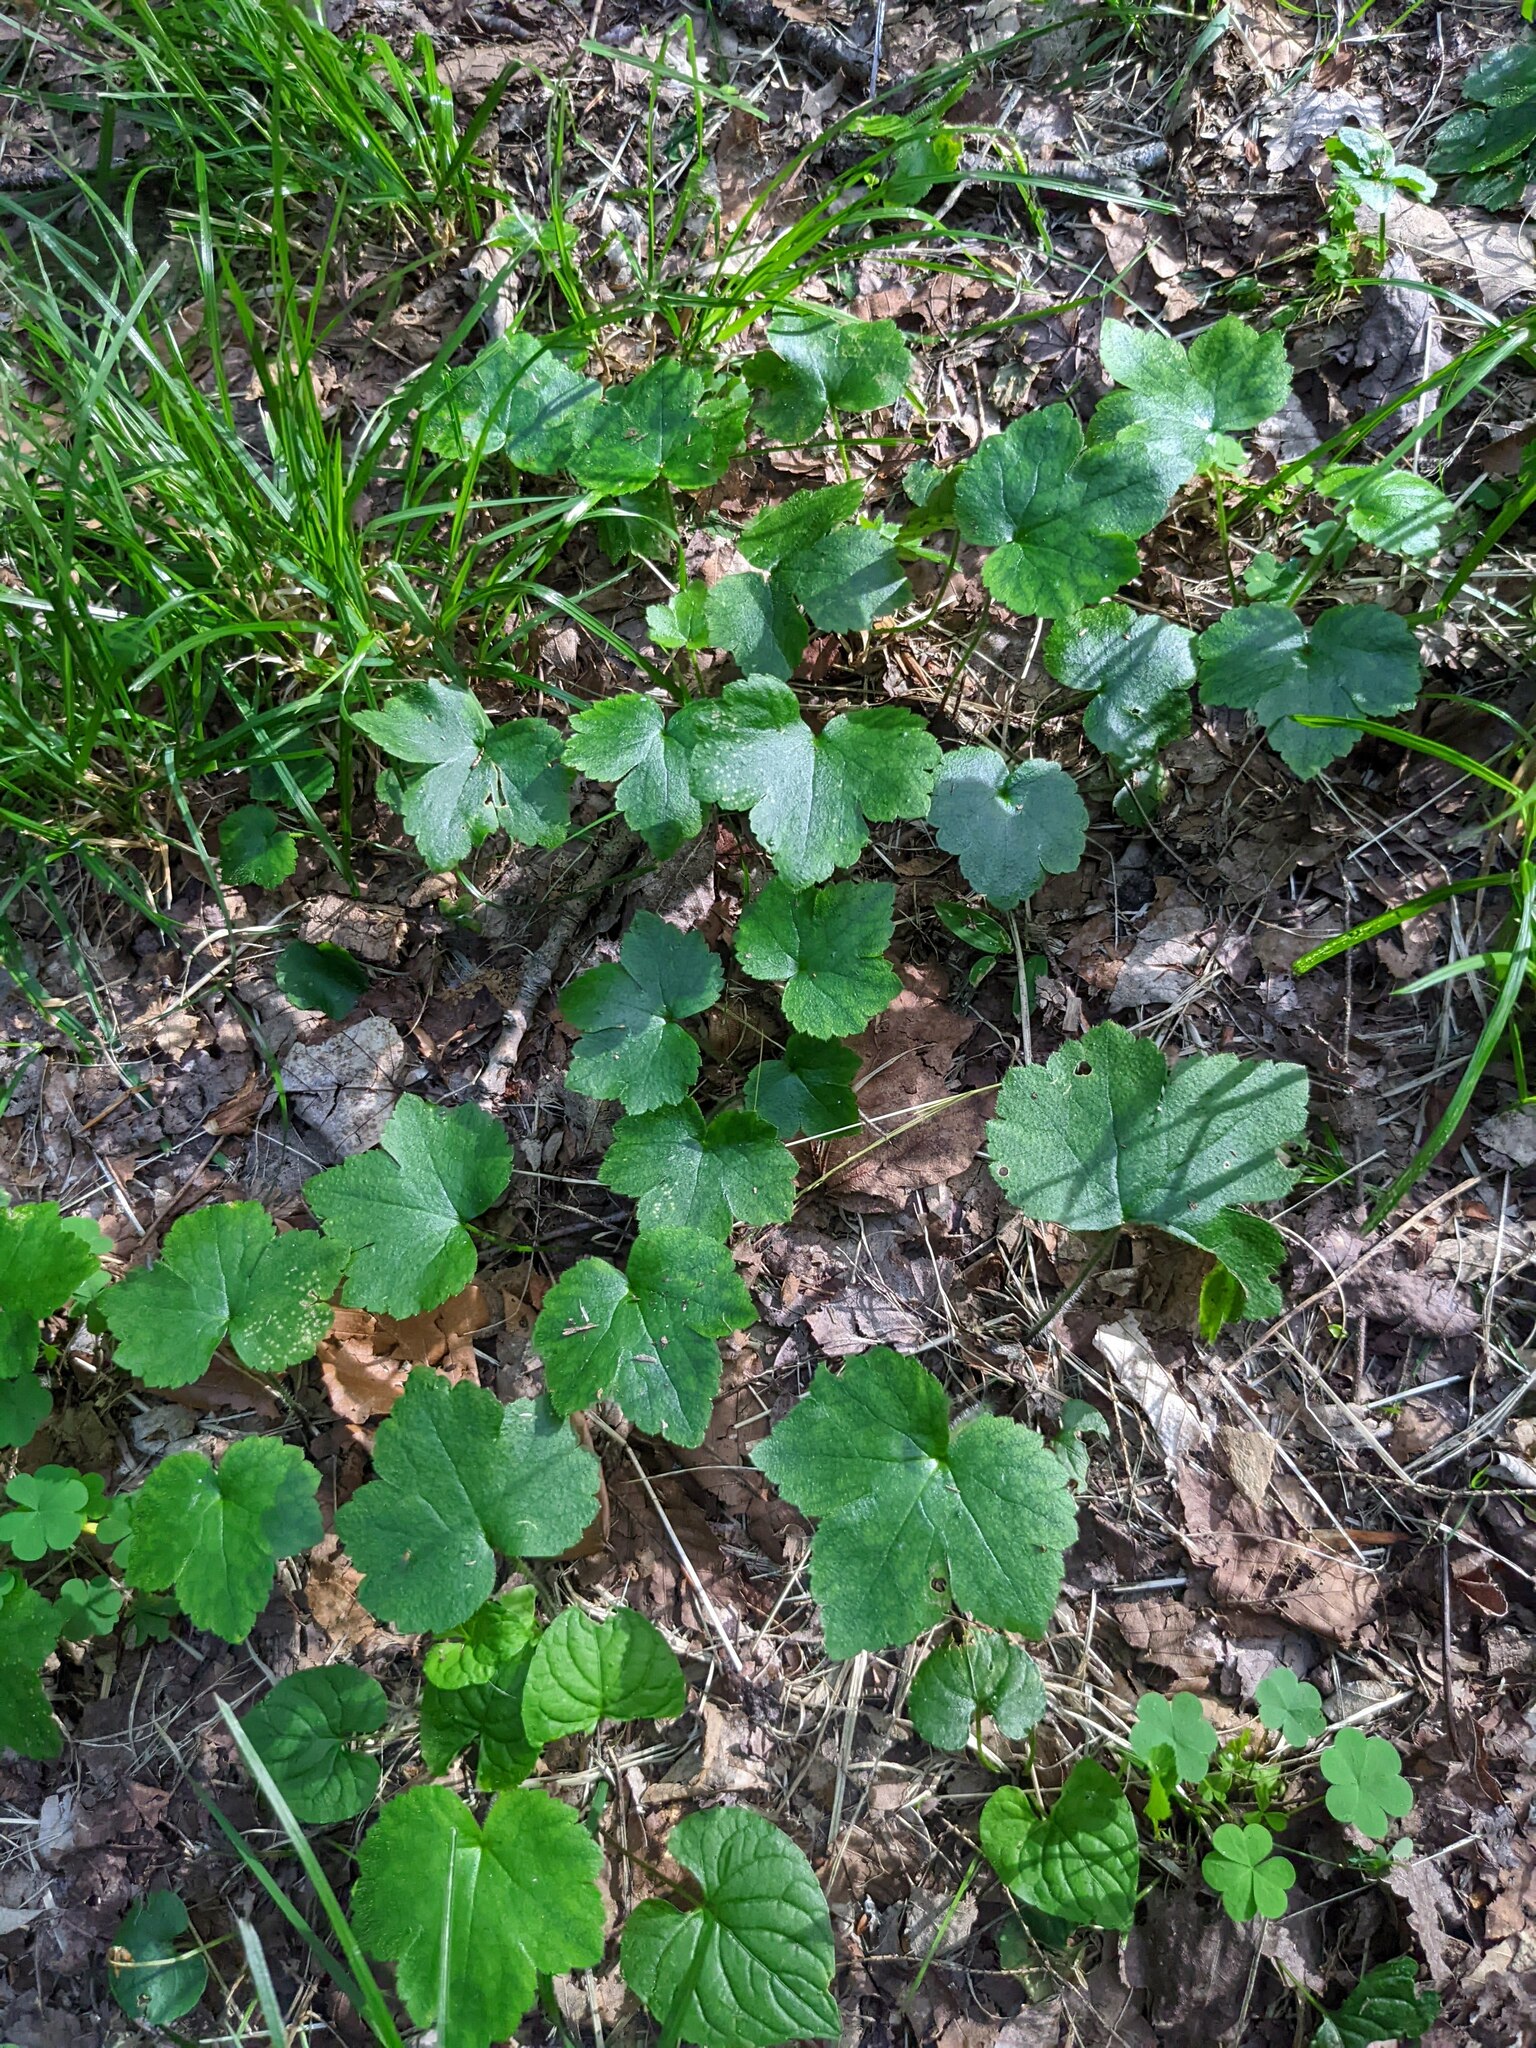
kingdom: Plantae
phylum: Tracheophyta
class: Magnoliopsida
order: Ranunculales
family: Ranunculaceae
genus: Ranunculus
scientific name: Ranunculus recurvatus
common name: Blisterwort
